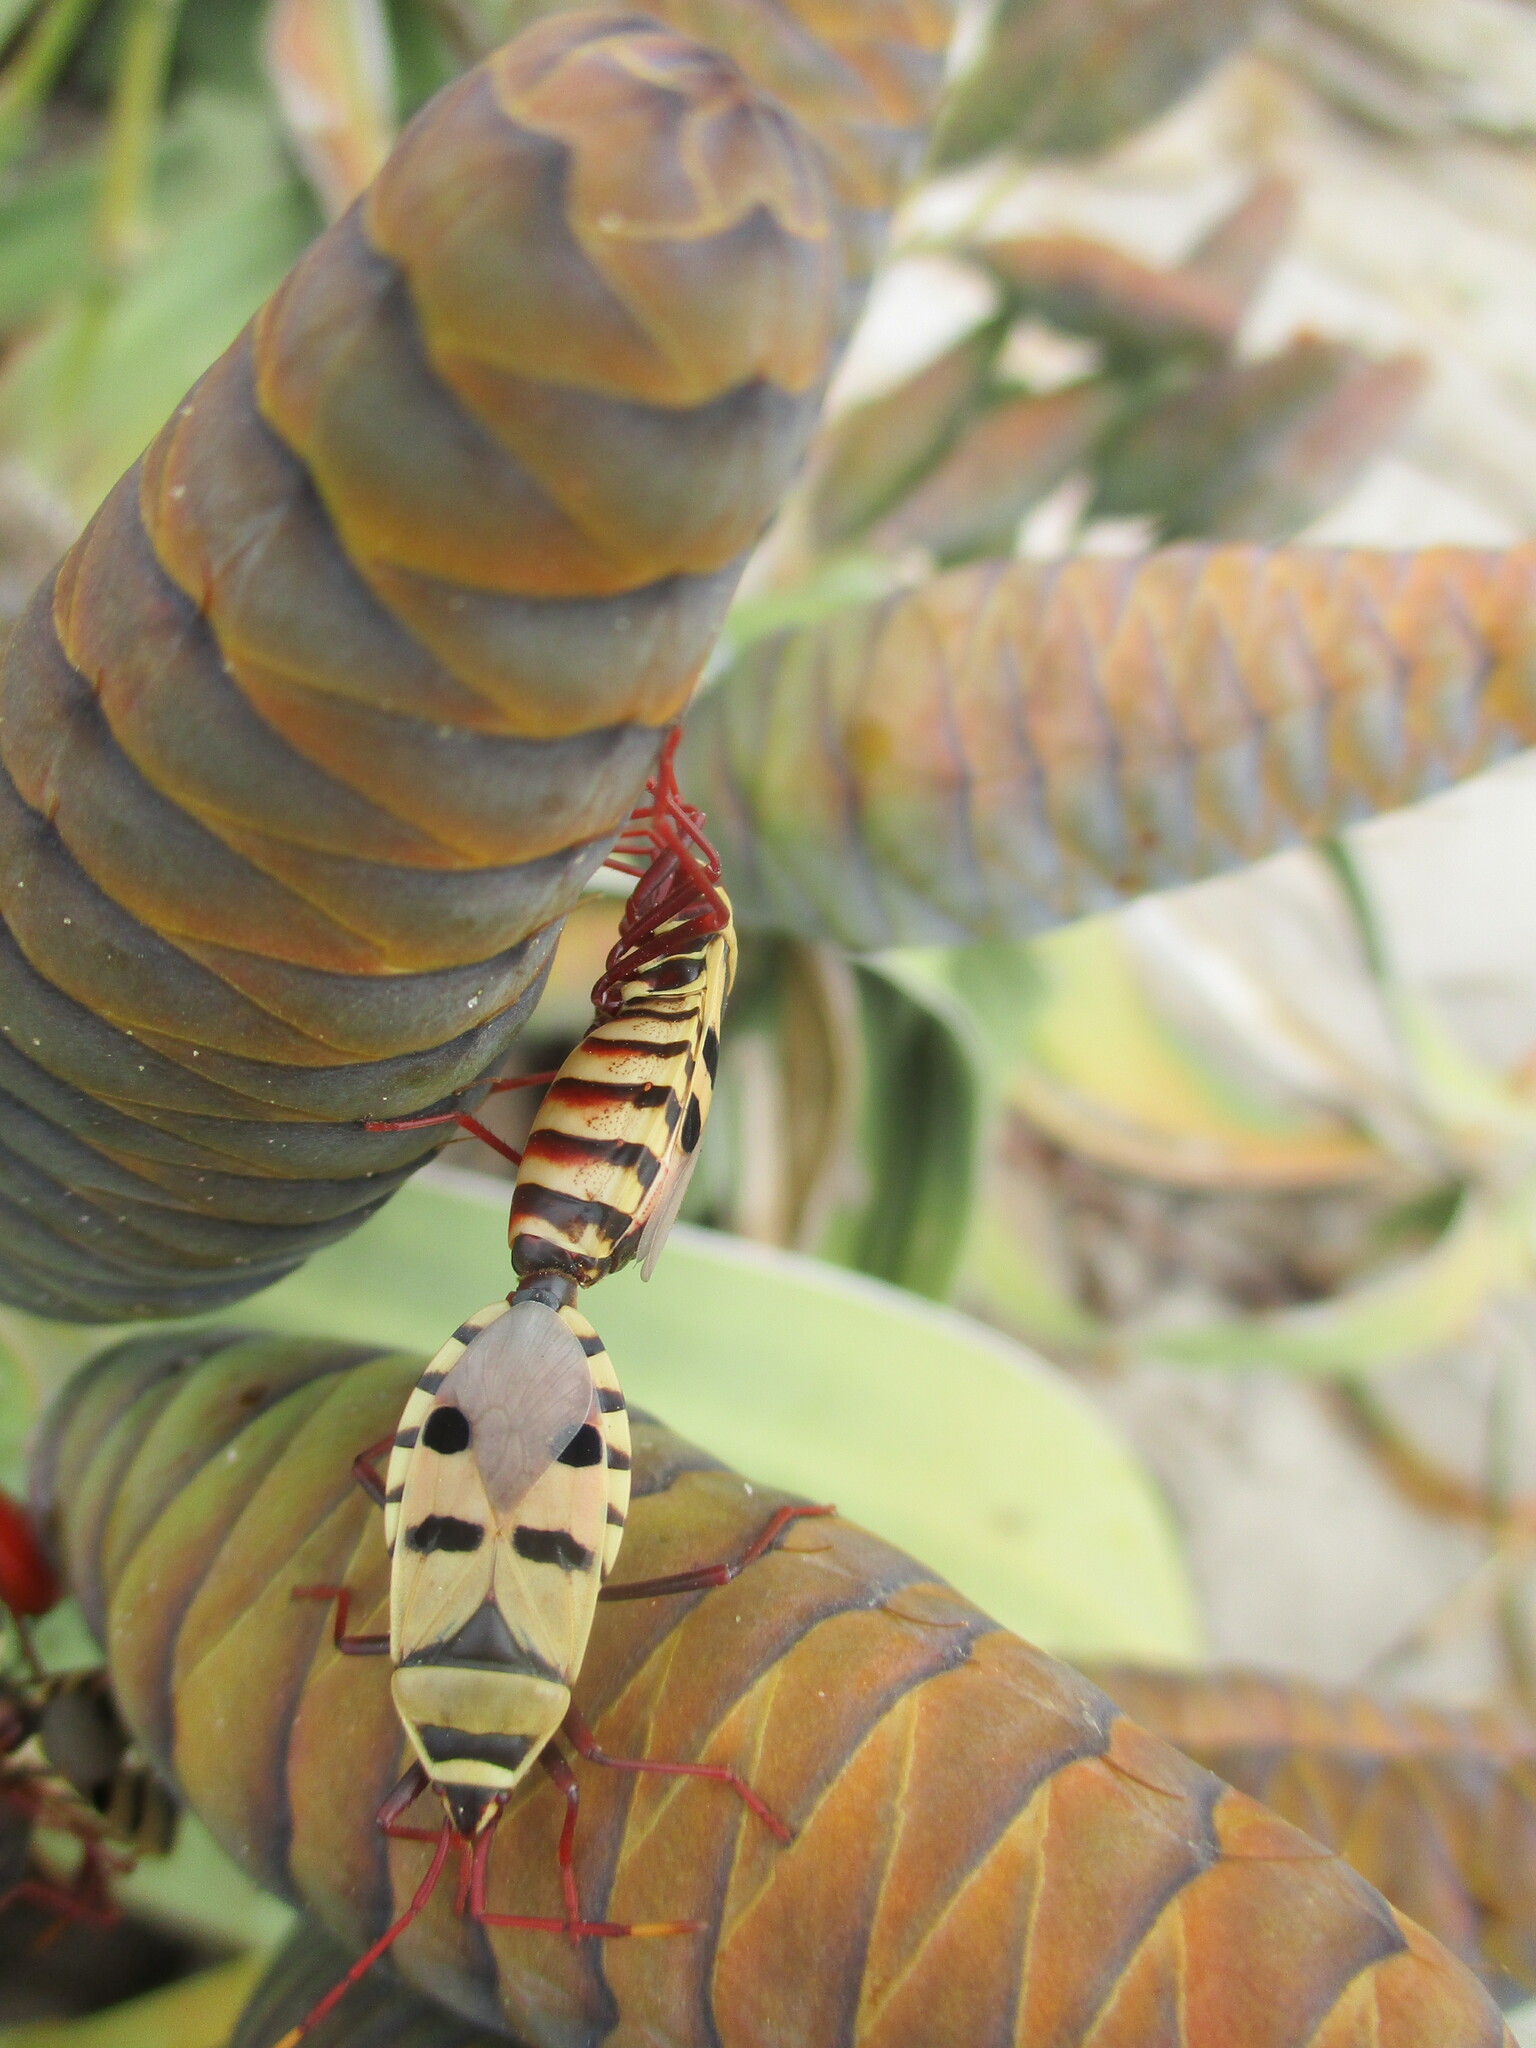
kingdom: Animalia
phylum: Arthropoda
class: Insecta
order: Hemiptera
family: Pyrrhocoridae
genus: Probergrothius
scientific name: Probergrothius angolensis
